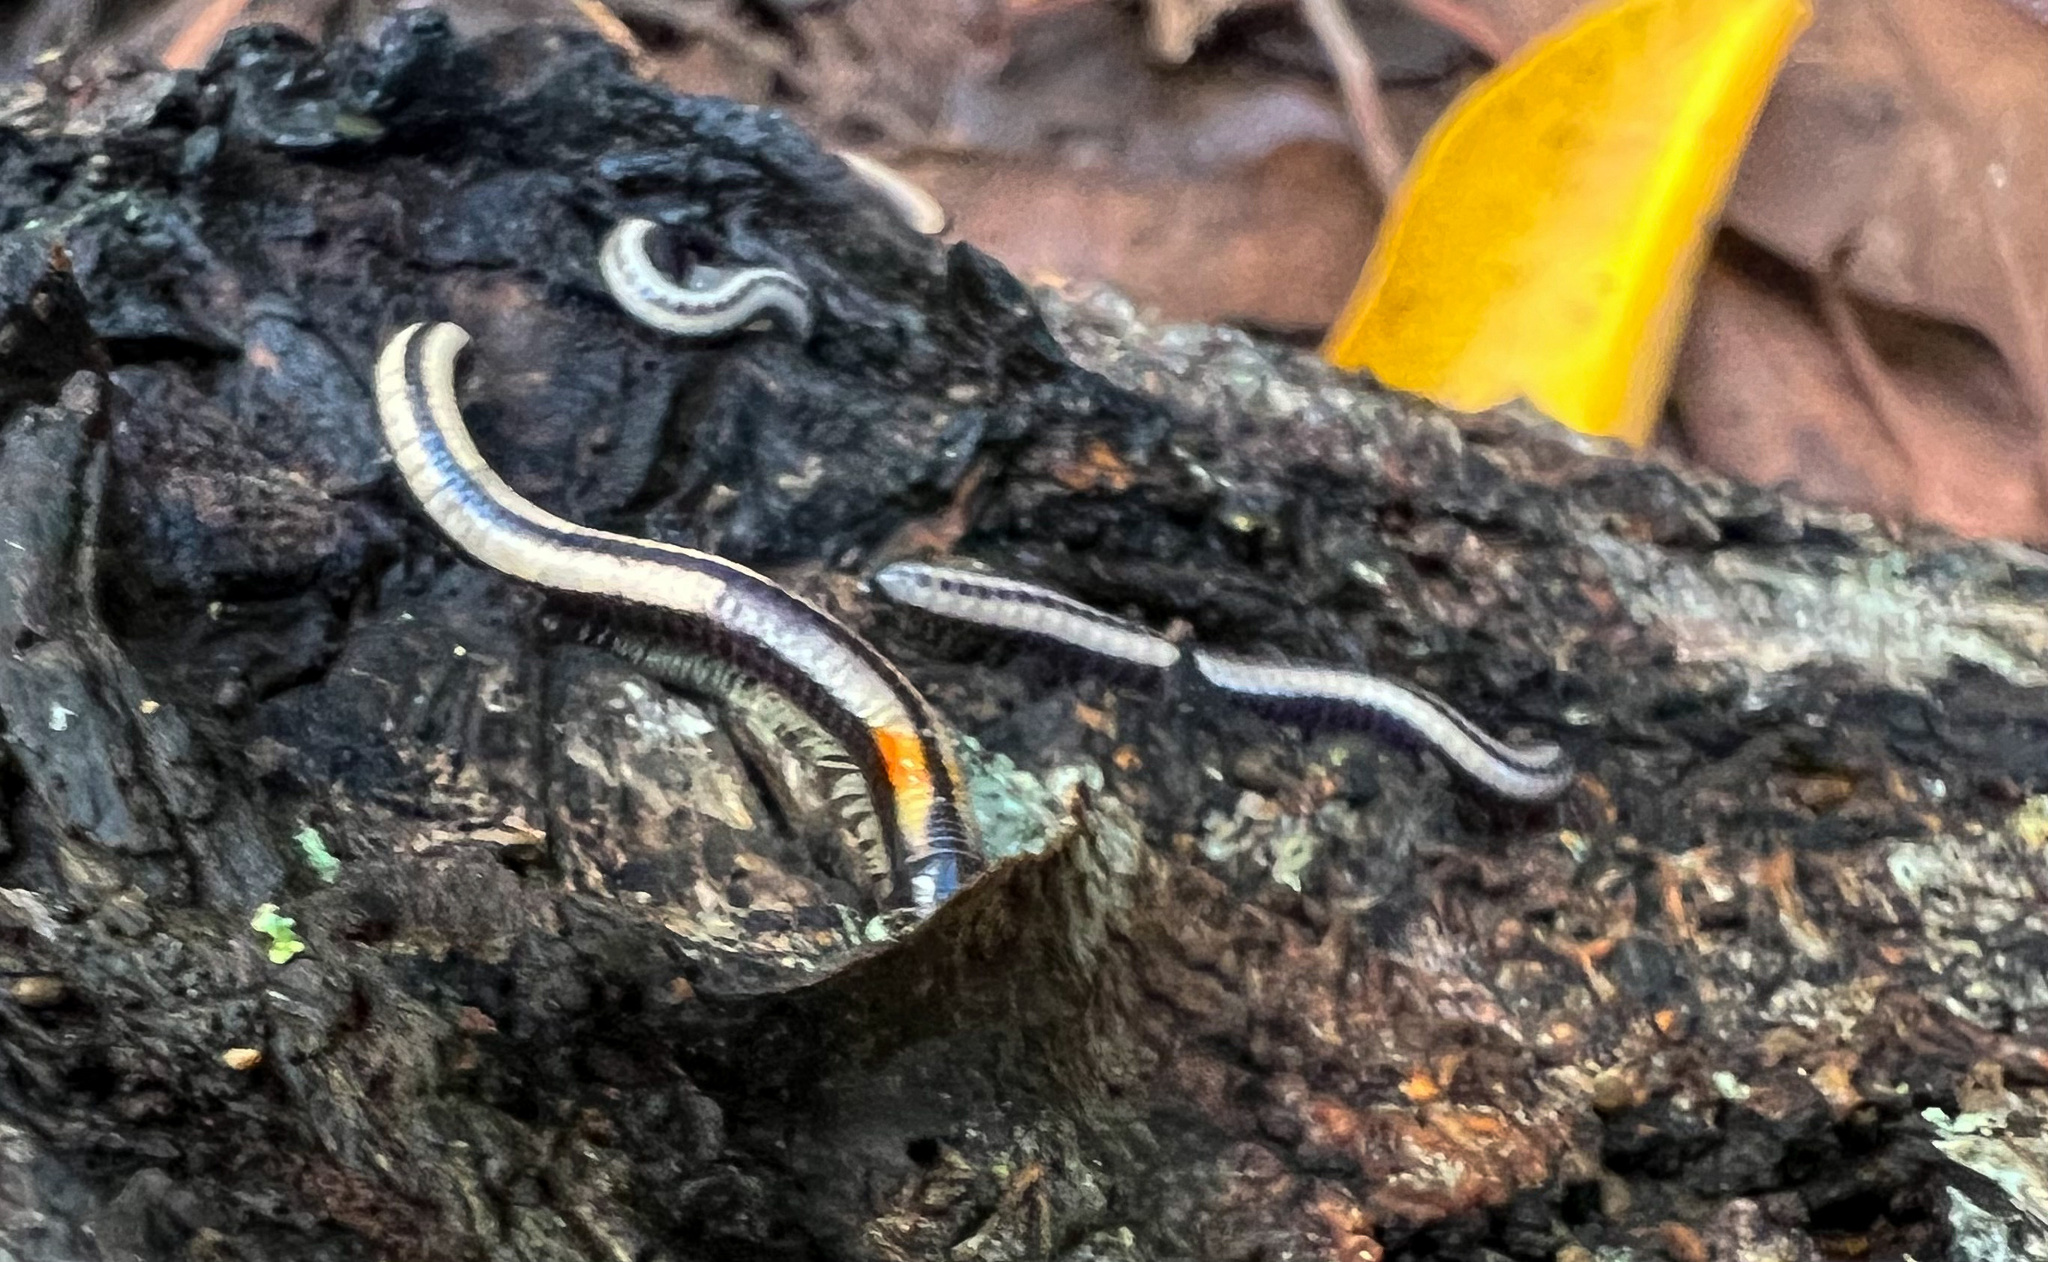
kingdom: Animalia
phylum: Arthropoda
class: Diplopoda
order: Spirobolida
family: Spirobolellidae
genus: Spirobolellus
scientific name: Spirobolellus immigrans
